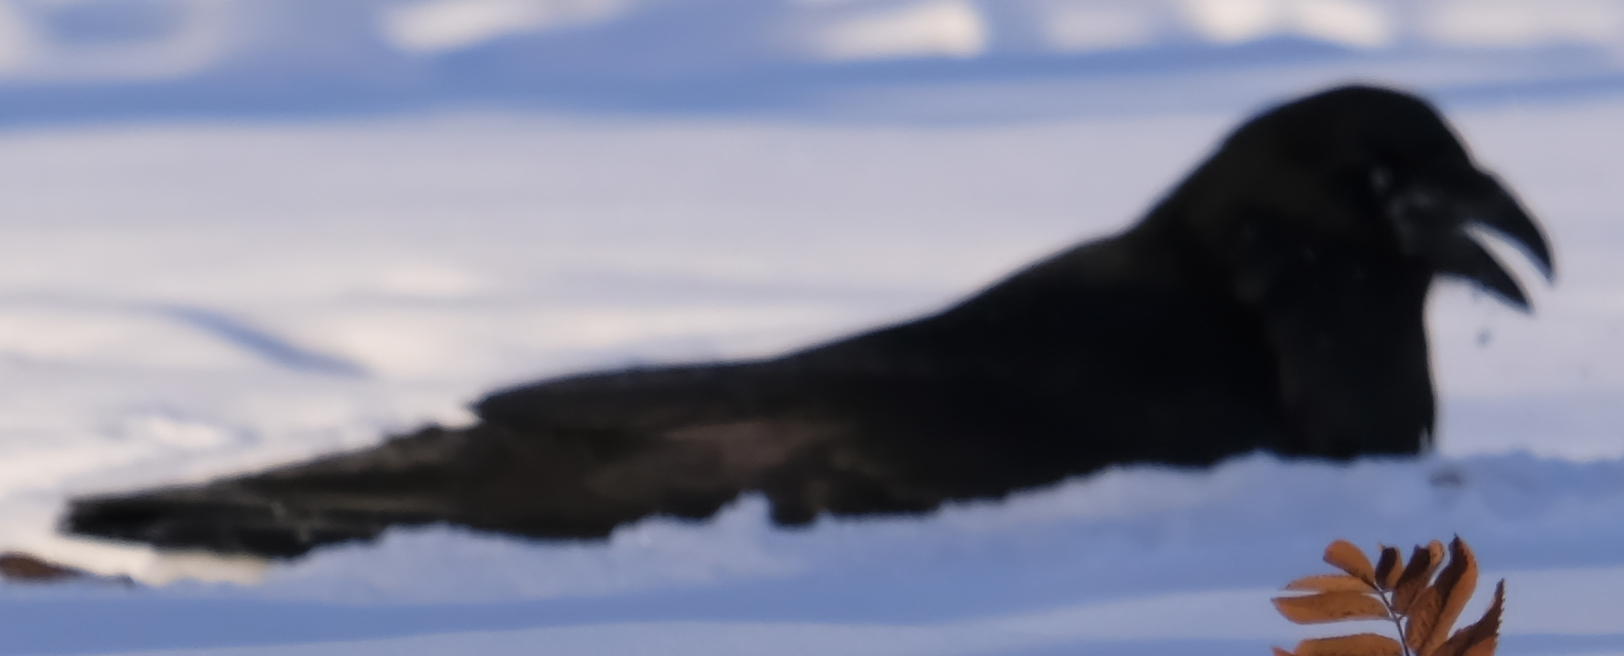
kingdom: Animalia
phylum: Chordata
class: Aves
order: Passeriformes
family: Corvidae
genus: Corvus
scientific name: Corvus corax
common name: Common raven
